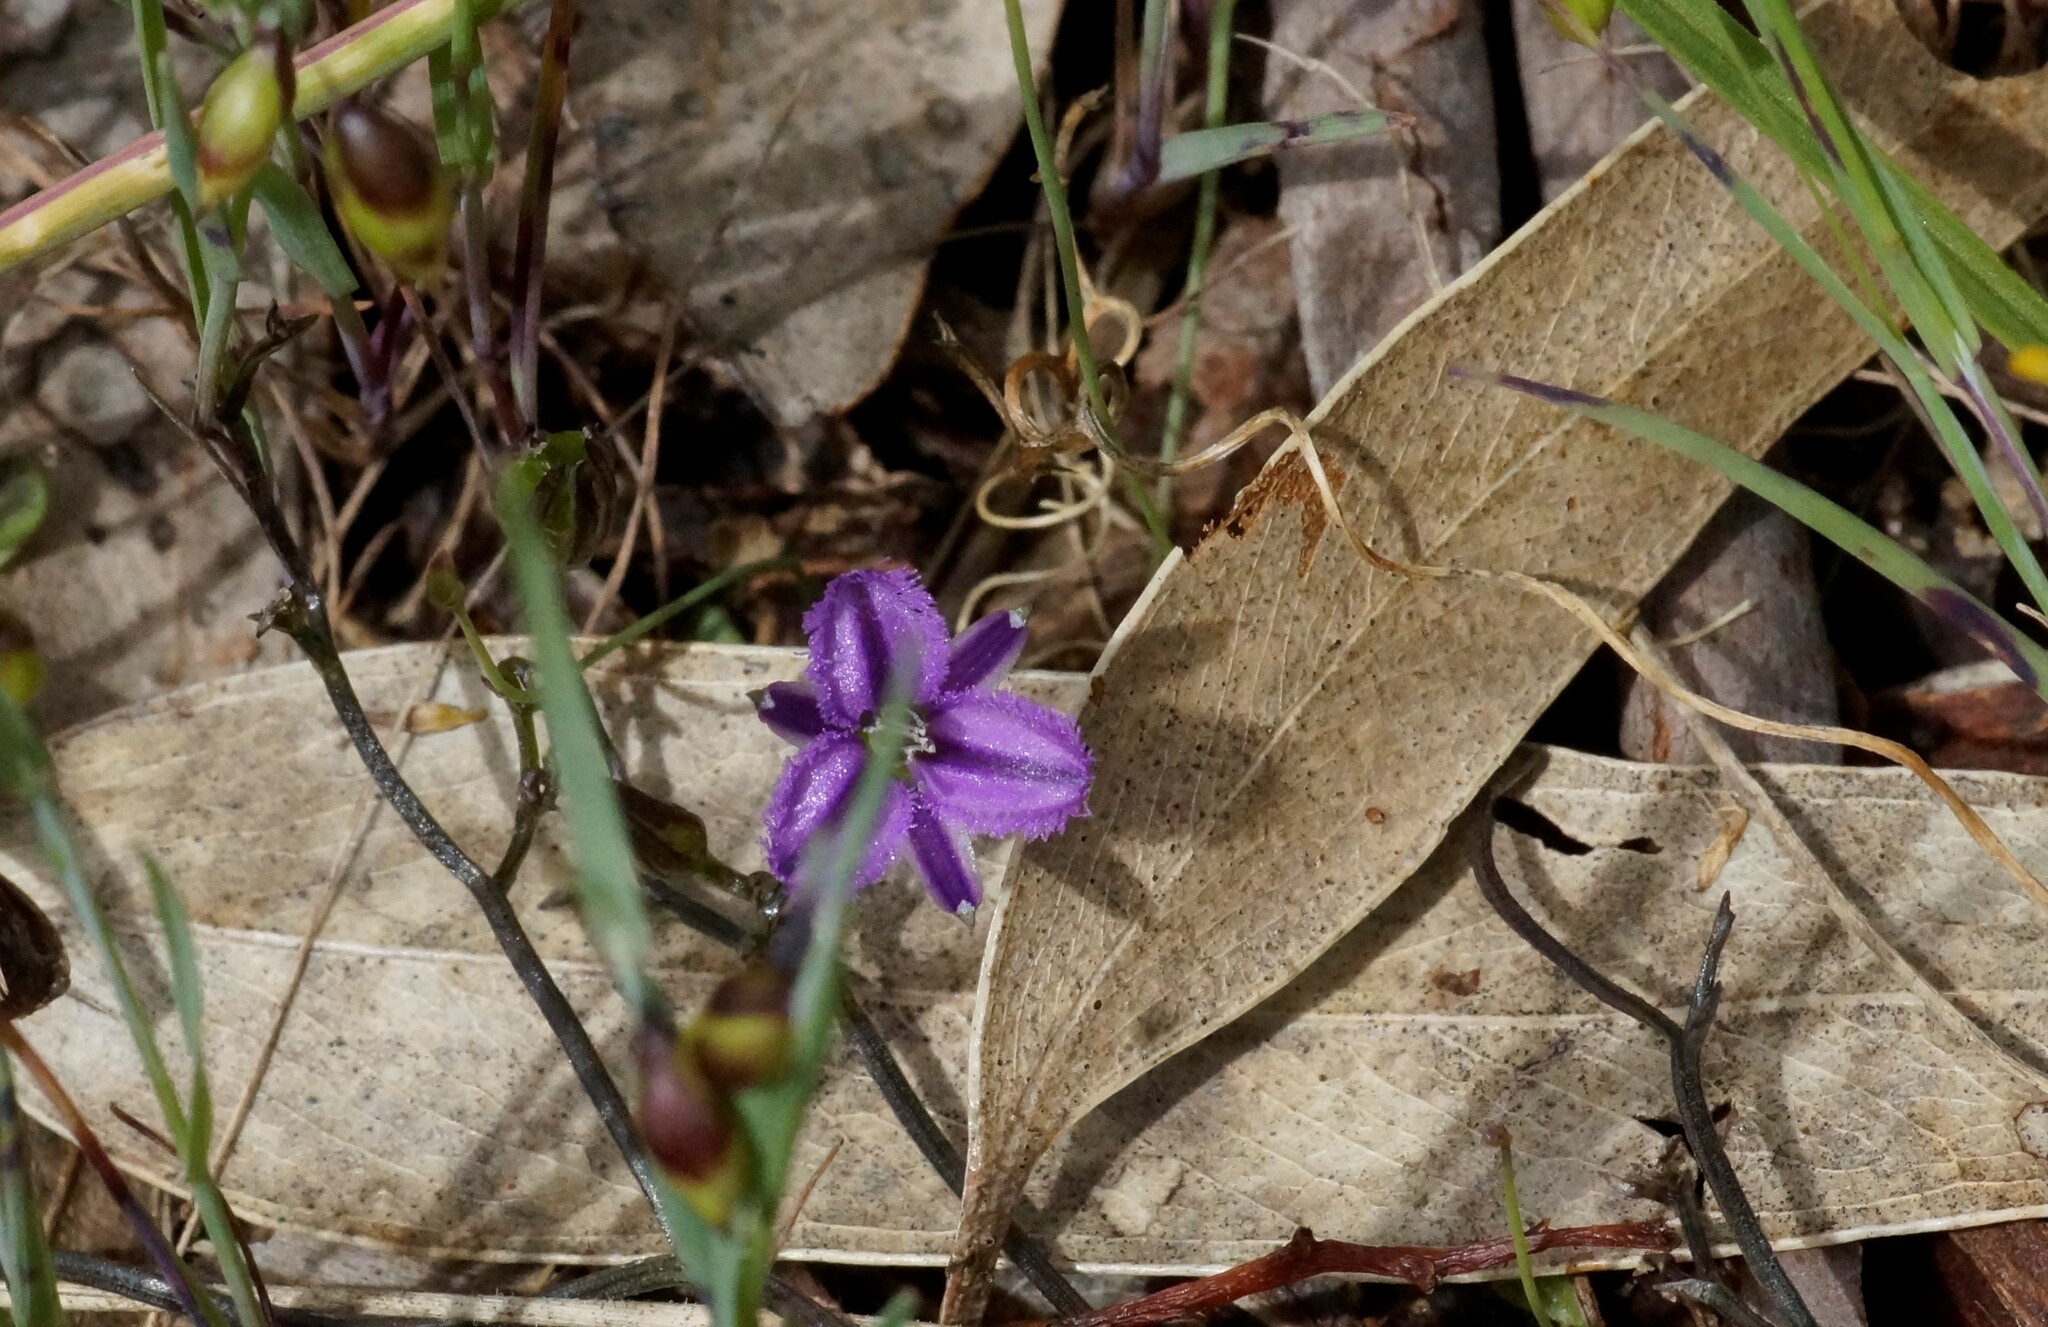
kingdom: Plantae
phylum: Tracheophyta
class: Liliopsida
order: Asparagales
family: Asparagaceae
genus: Thysanotus
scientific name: Thysanotus patersonii
